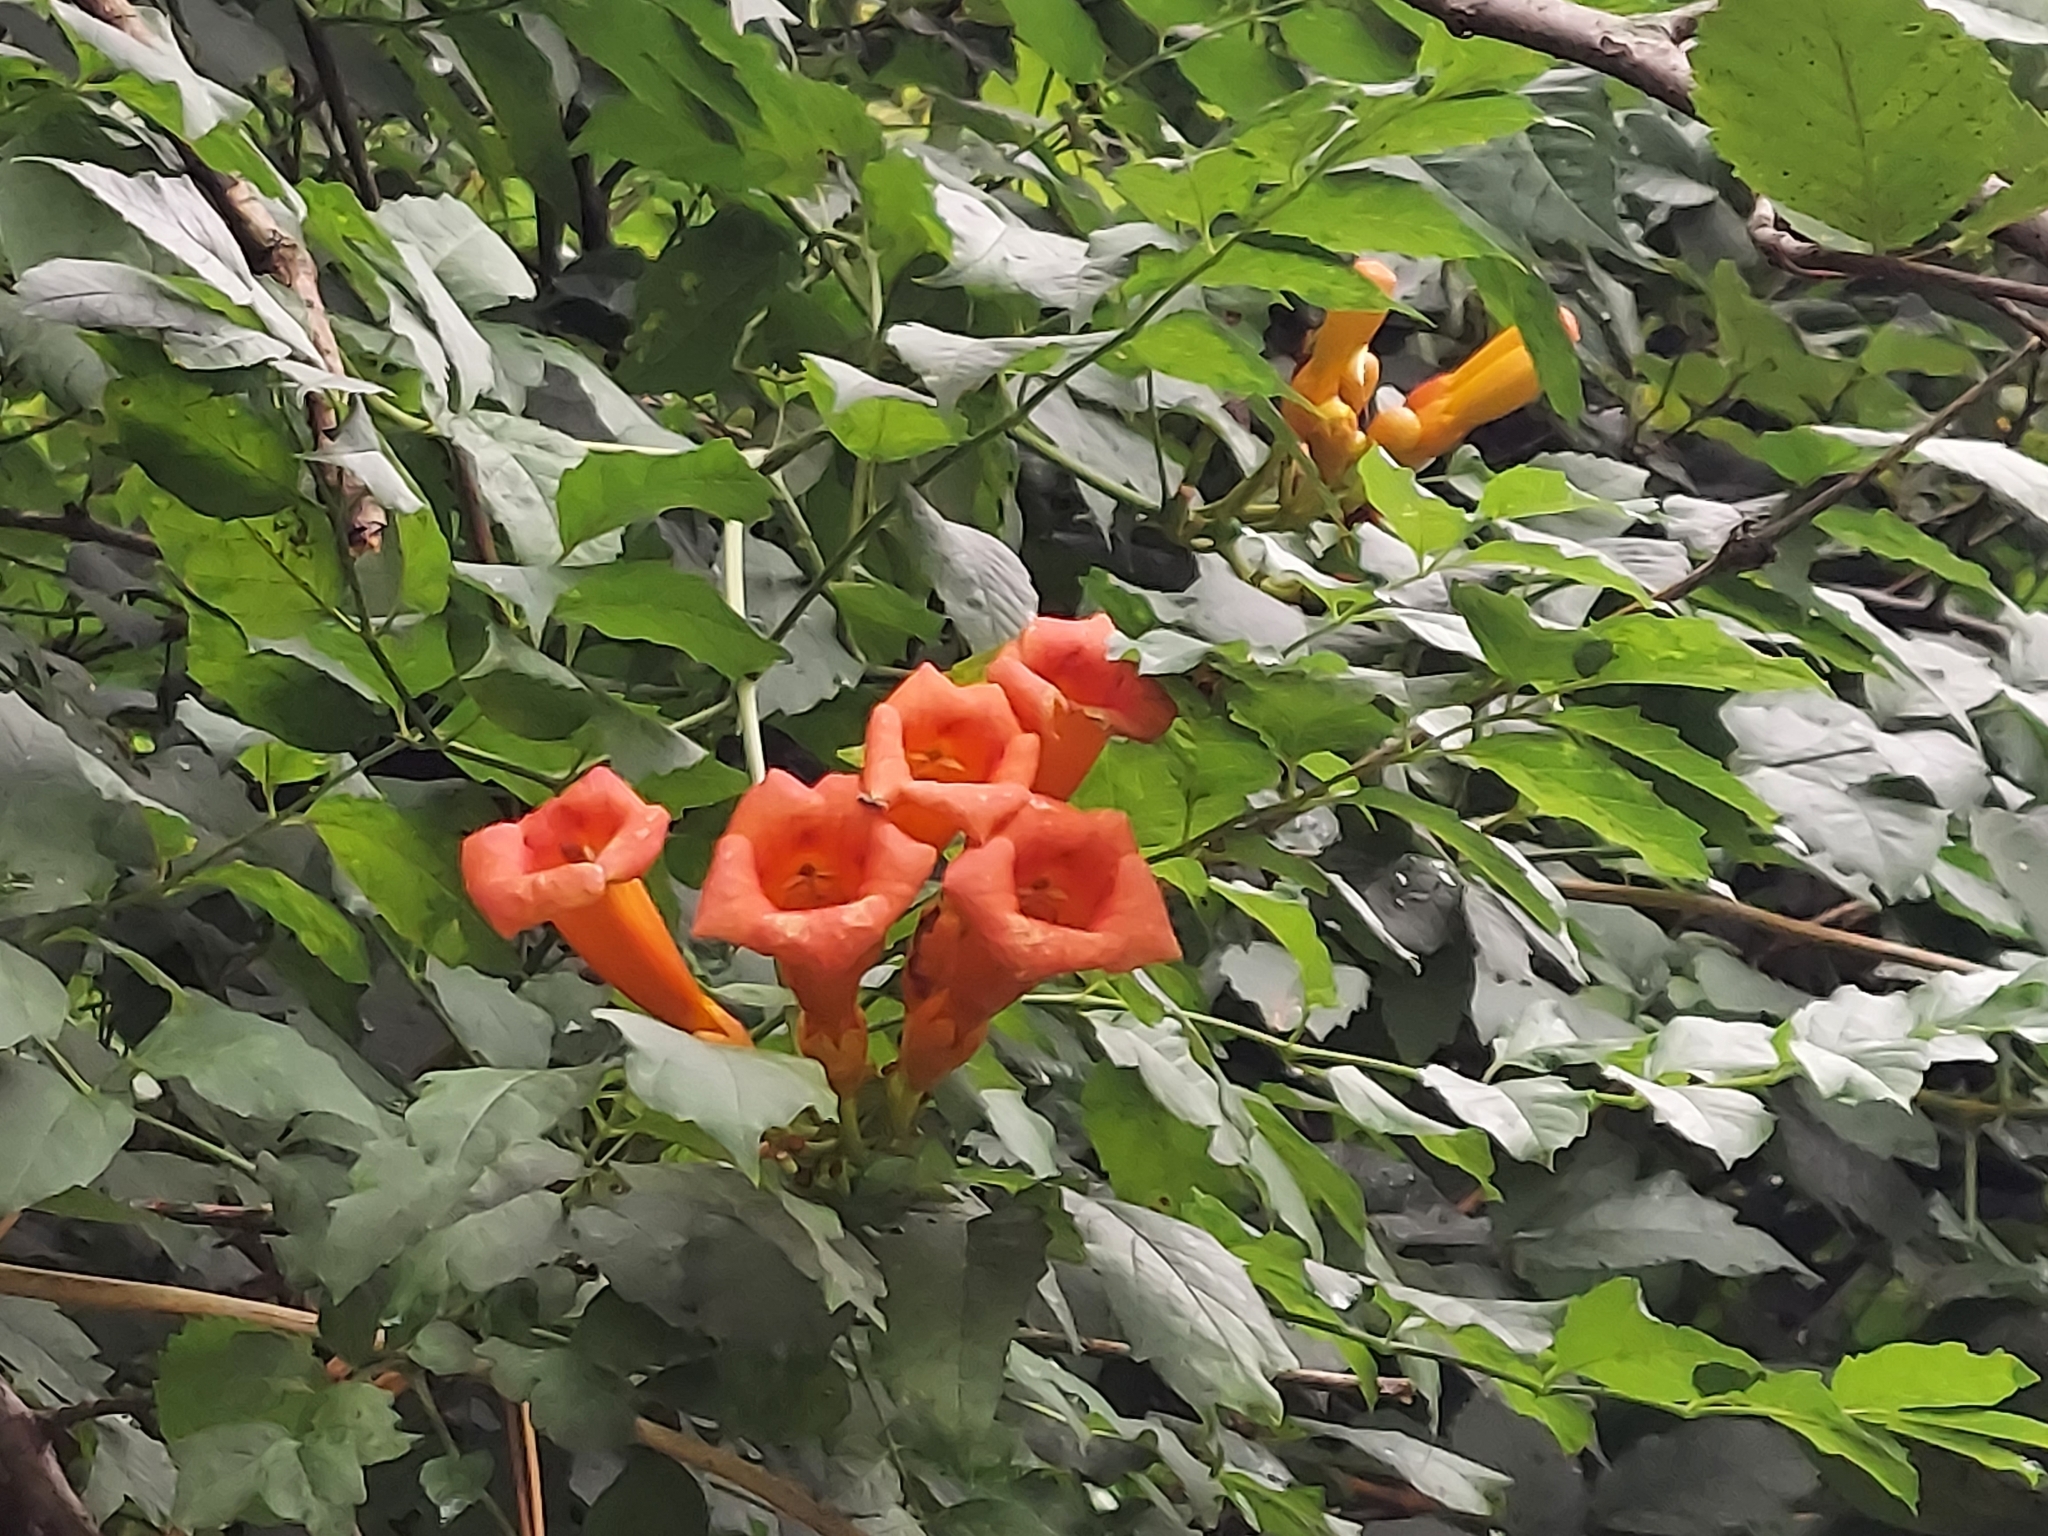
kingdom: Plantae
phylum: Tracheophyta
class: Magnoliopsida
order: Lamiales
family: Bignoniaceae
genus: Campsis
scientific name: Campsis radicans
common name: Trumpet-creeper
